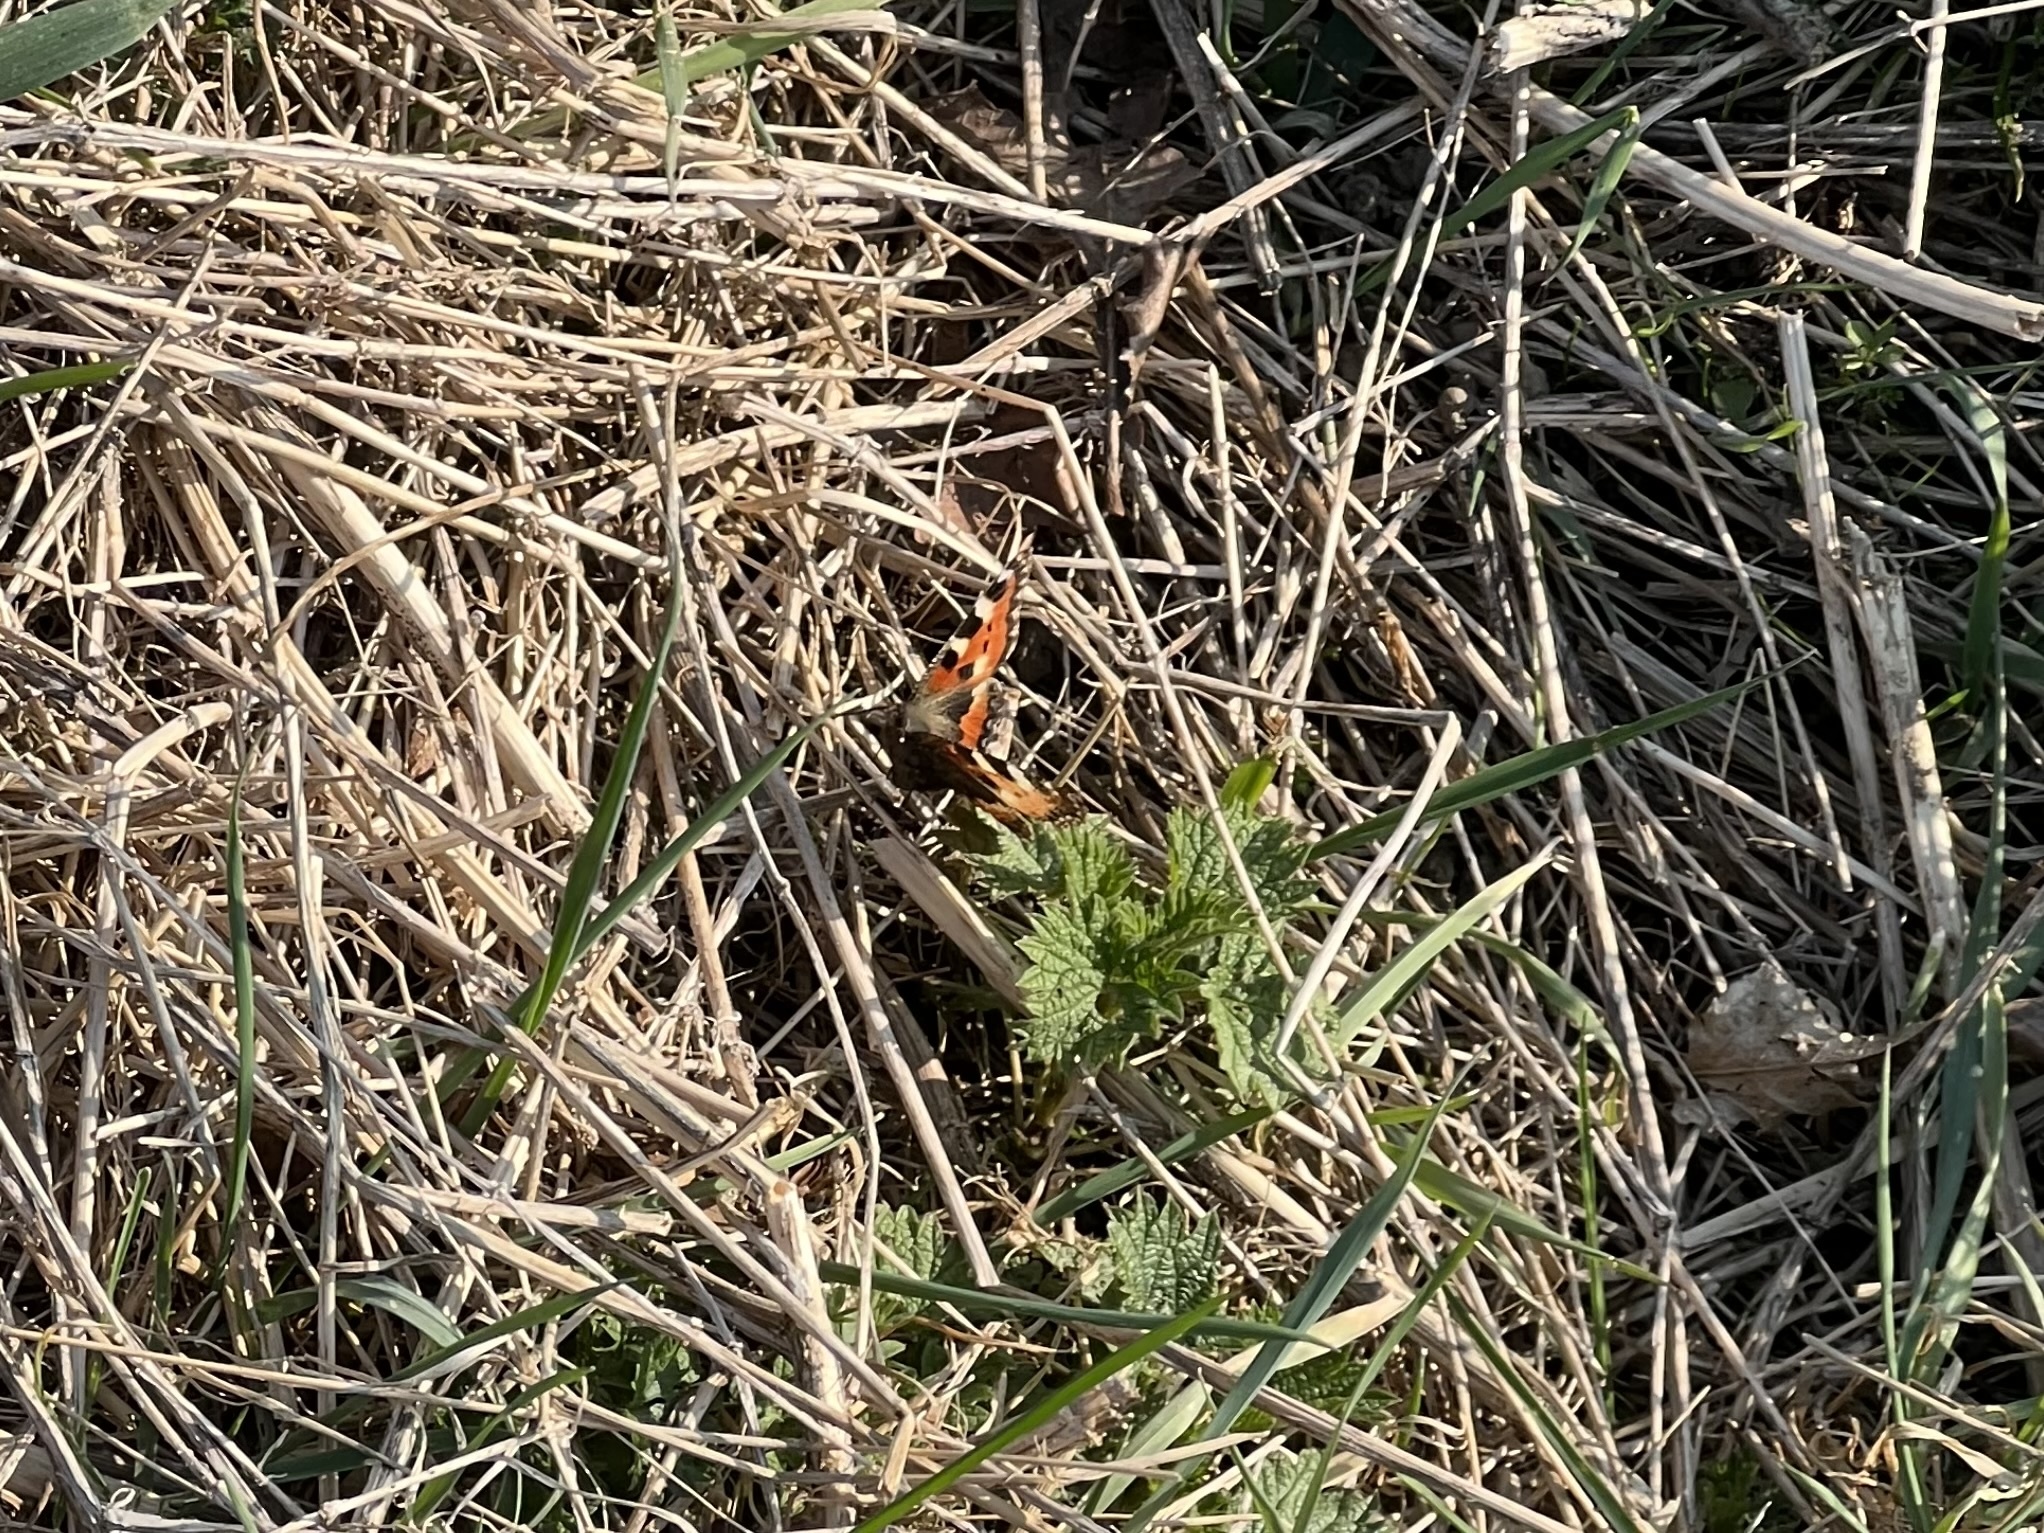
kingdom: Animalia
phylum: Arthropoda
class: Insecta
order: Lepidoptera
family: Nymphalidae
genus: Aglais
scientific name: Aglais urticae
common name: Small tortoiseshell
